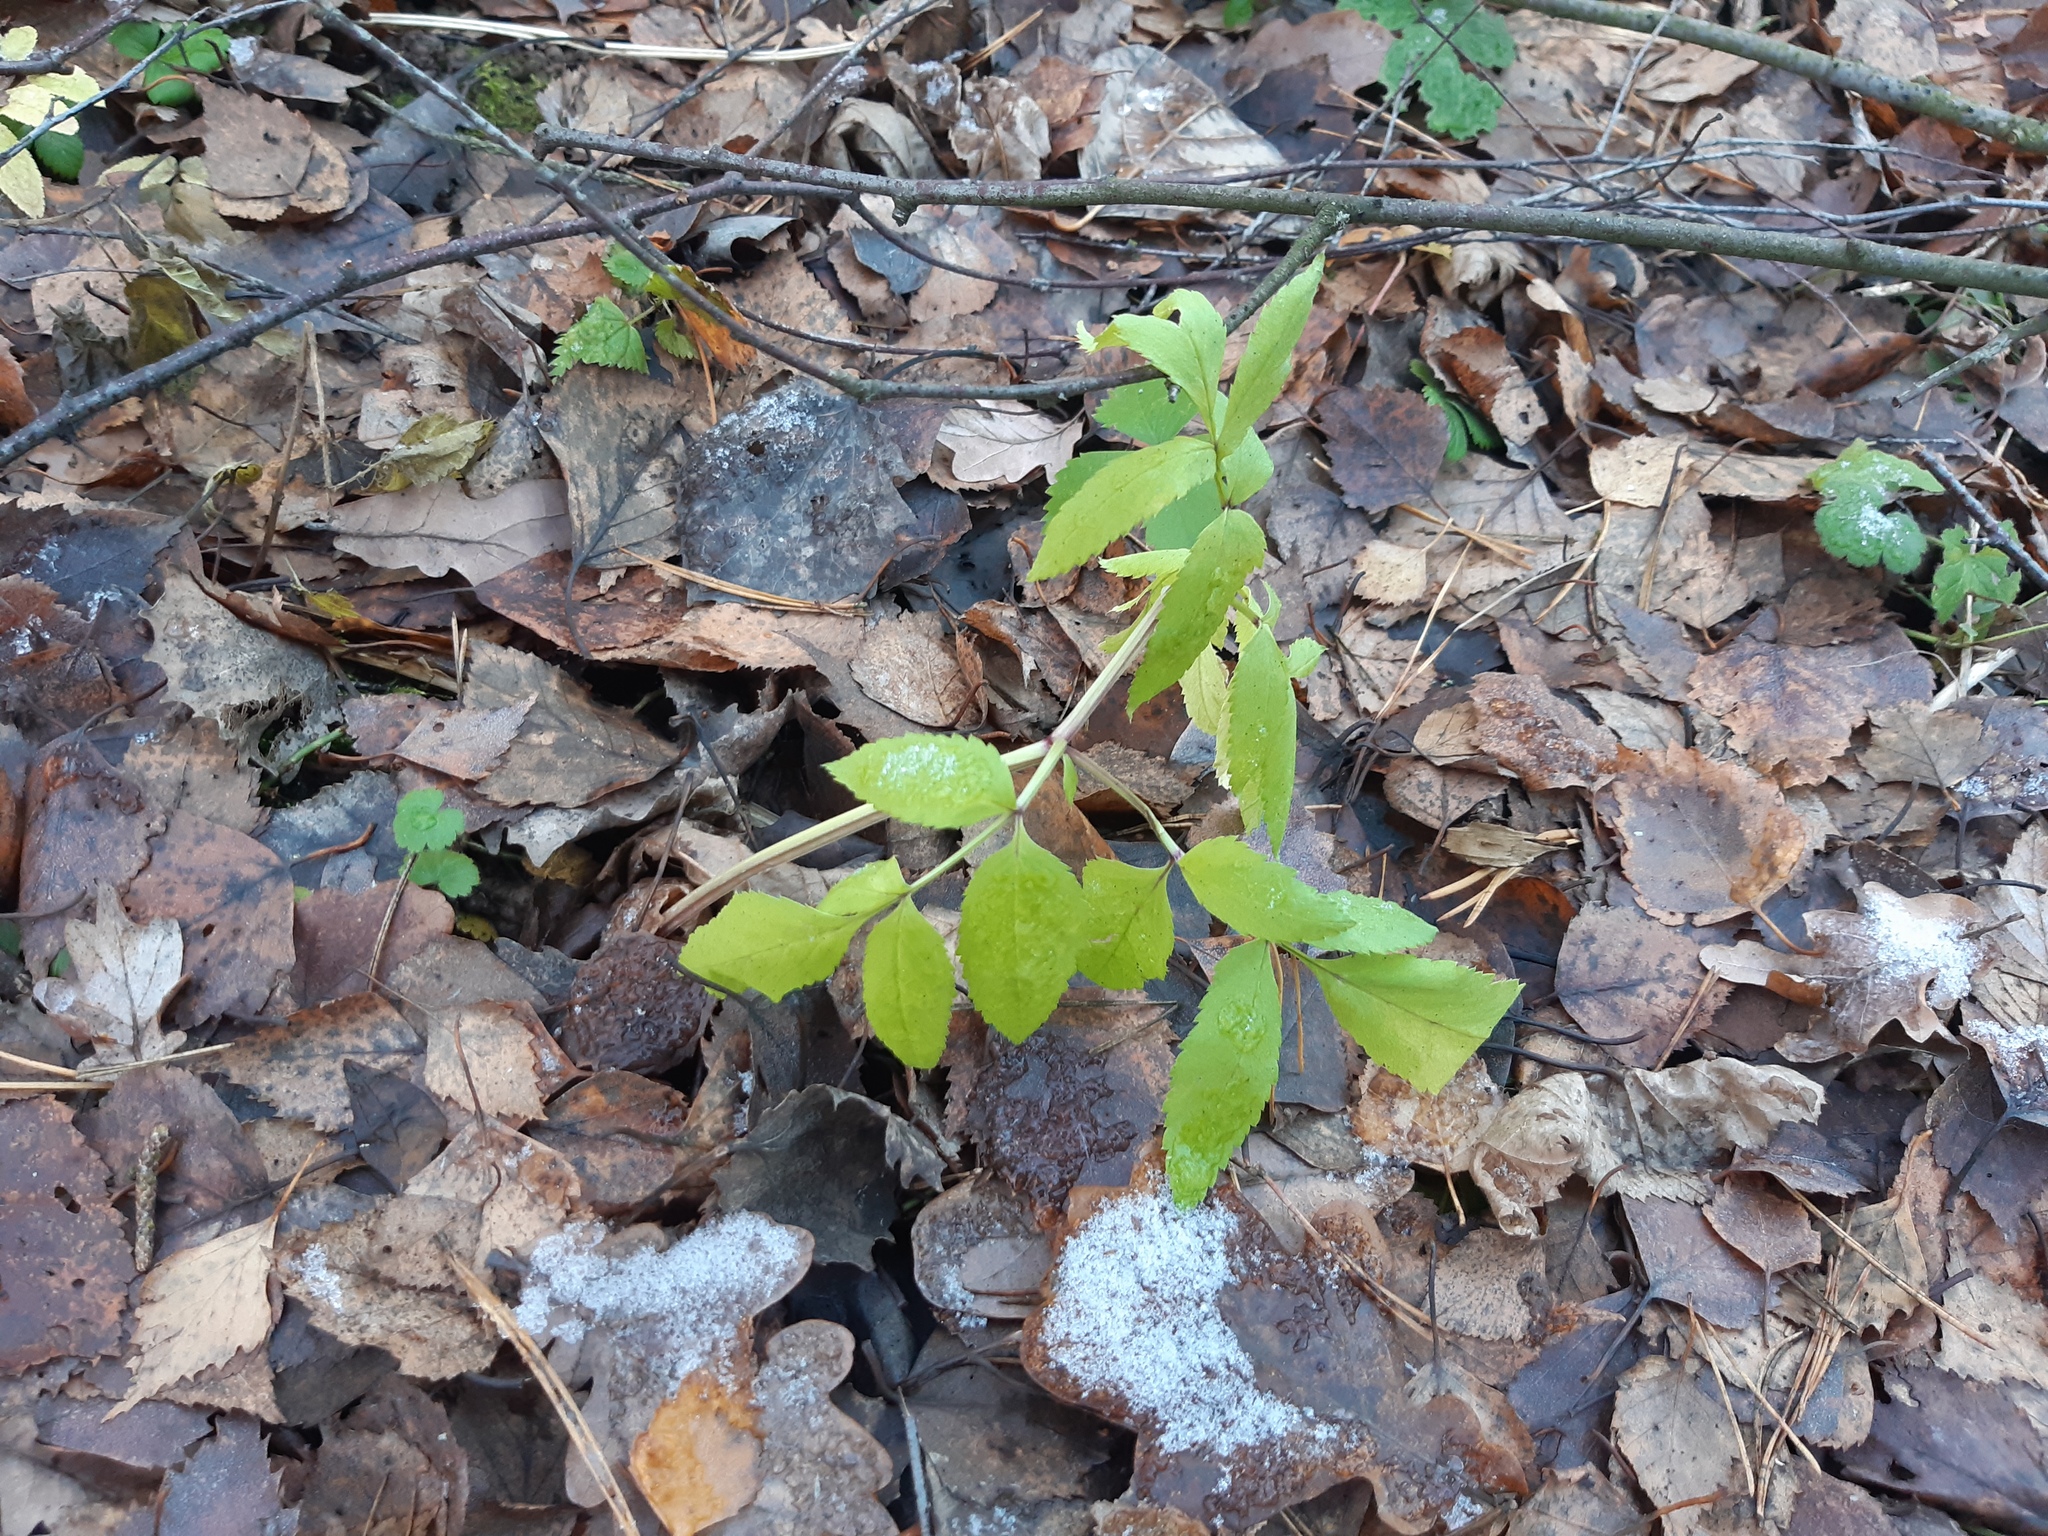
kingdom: Plantae
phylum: Tracheophyta
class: Magnoliopsida
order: Apiales
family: Apiaceae
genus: Angelica
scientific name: Angelica sylvestris
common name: Wild angelica
